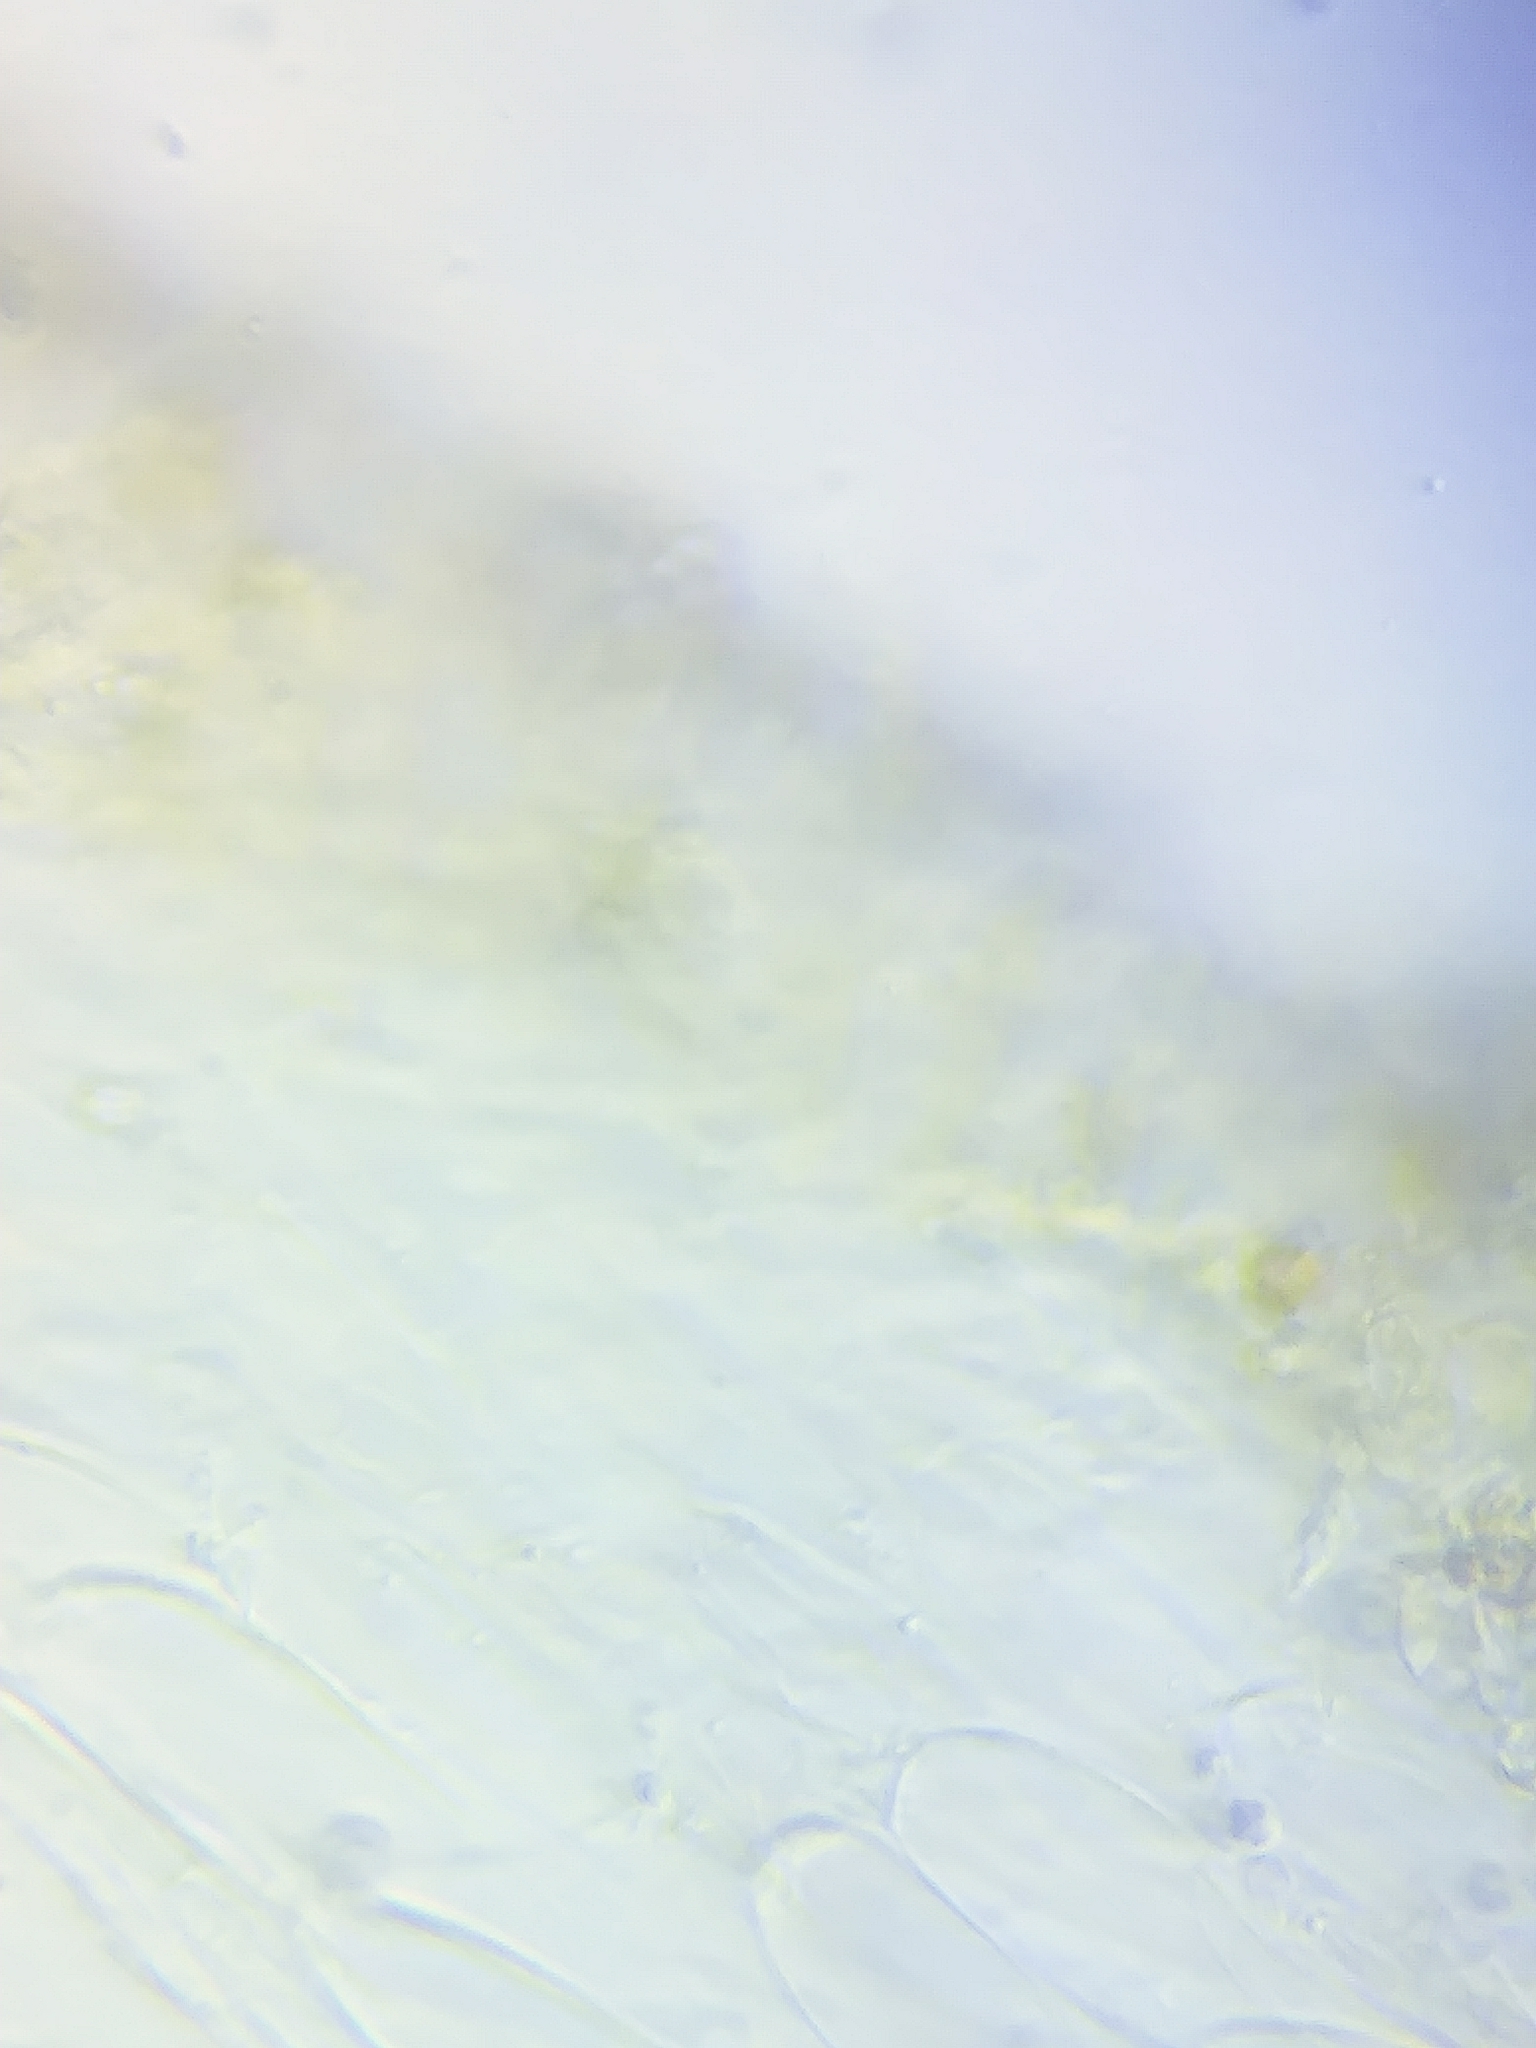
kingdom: Fungi
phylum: Basidiomycota
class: Agaricomycetes
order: Agaricales
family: Cortinariaceae
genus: Cortinarius
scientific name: Cortinarius lewisii
